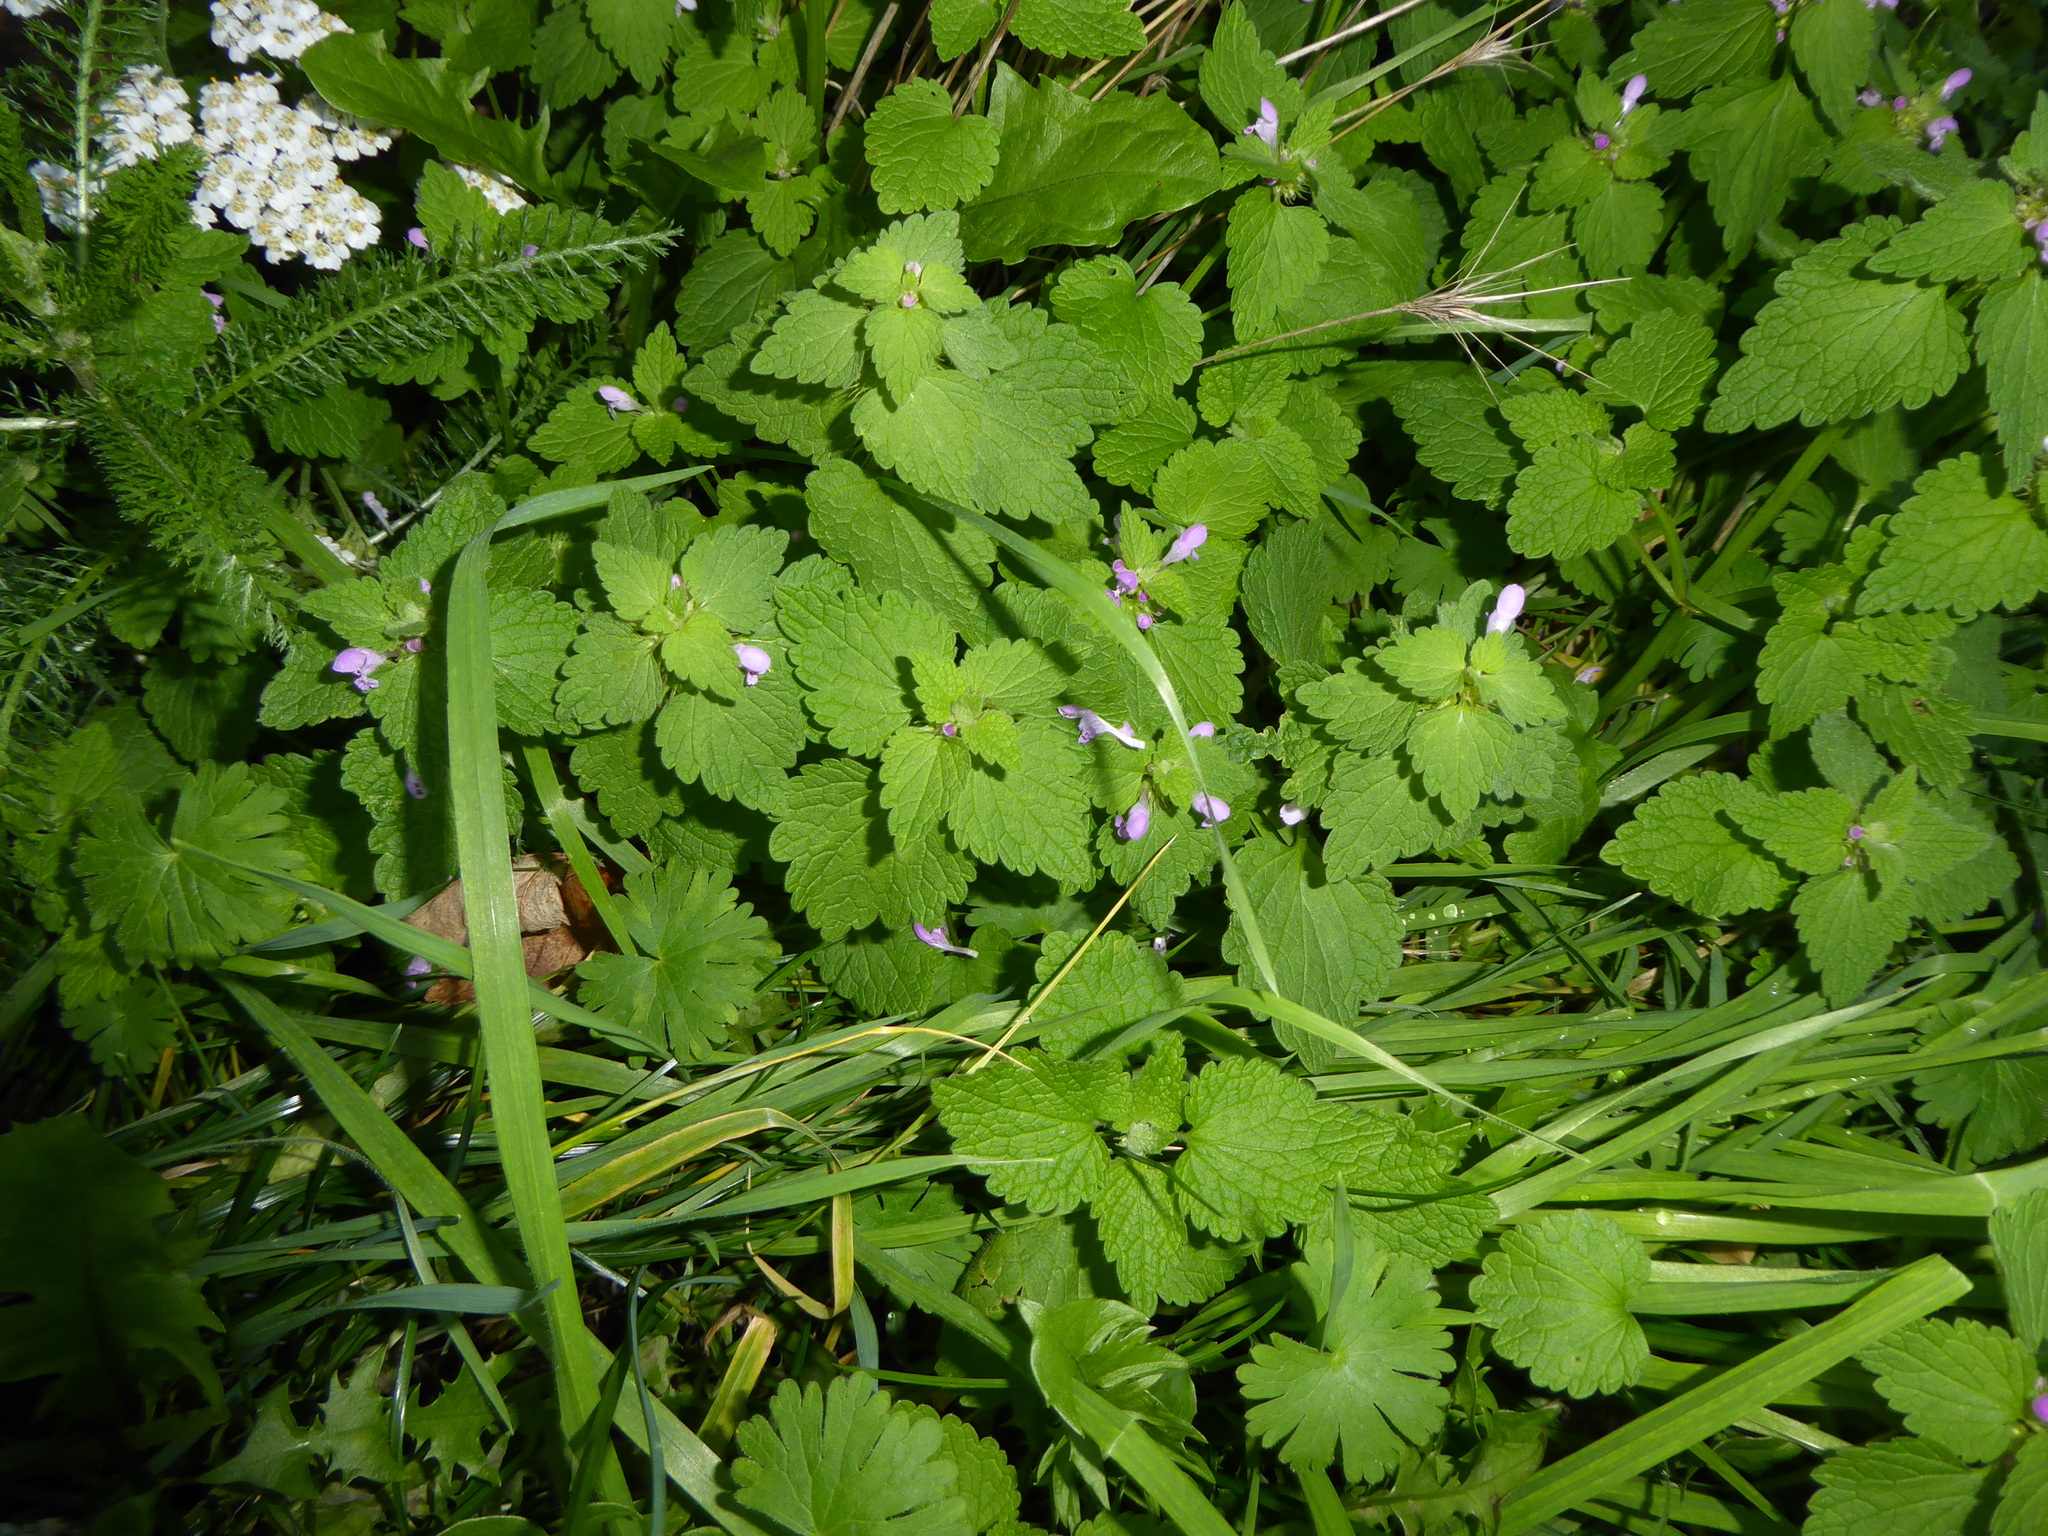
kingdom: Plantae
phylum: Tracheophyta
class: Magnoliopsida
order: Lamiales
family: Lamiaceae
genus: Lamium
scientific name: Lamium purpureum
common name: Red dead-nettle
